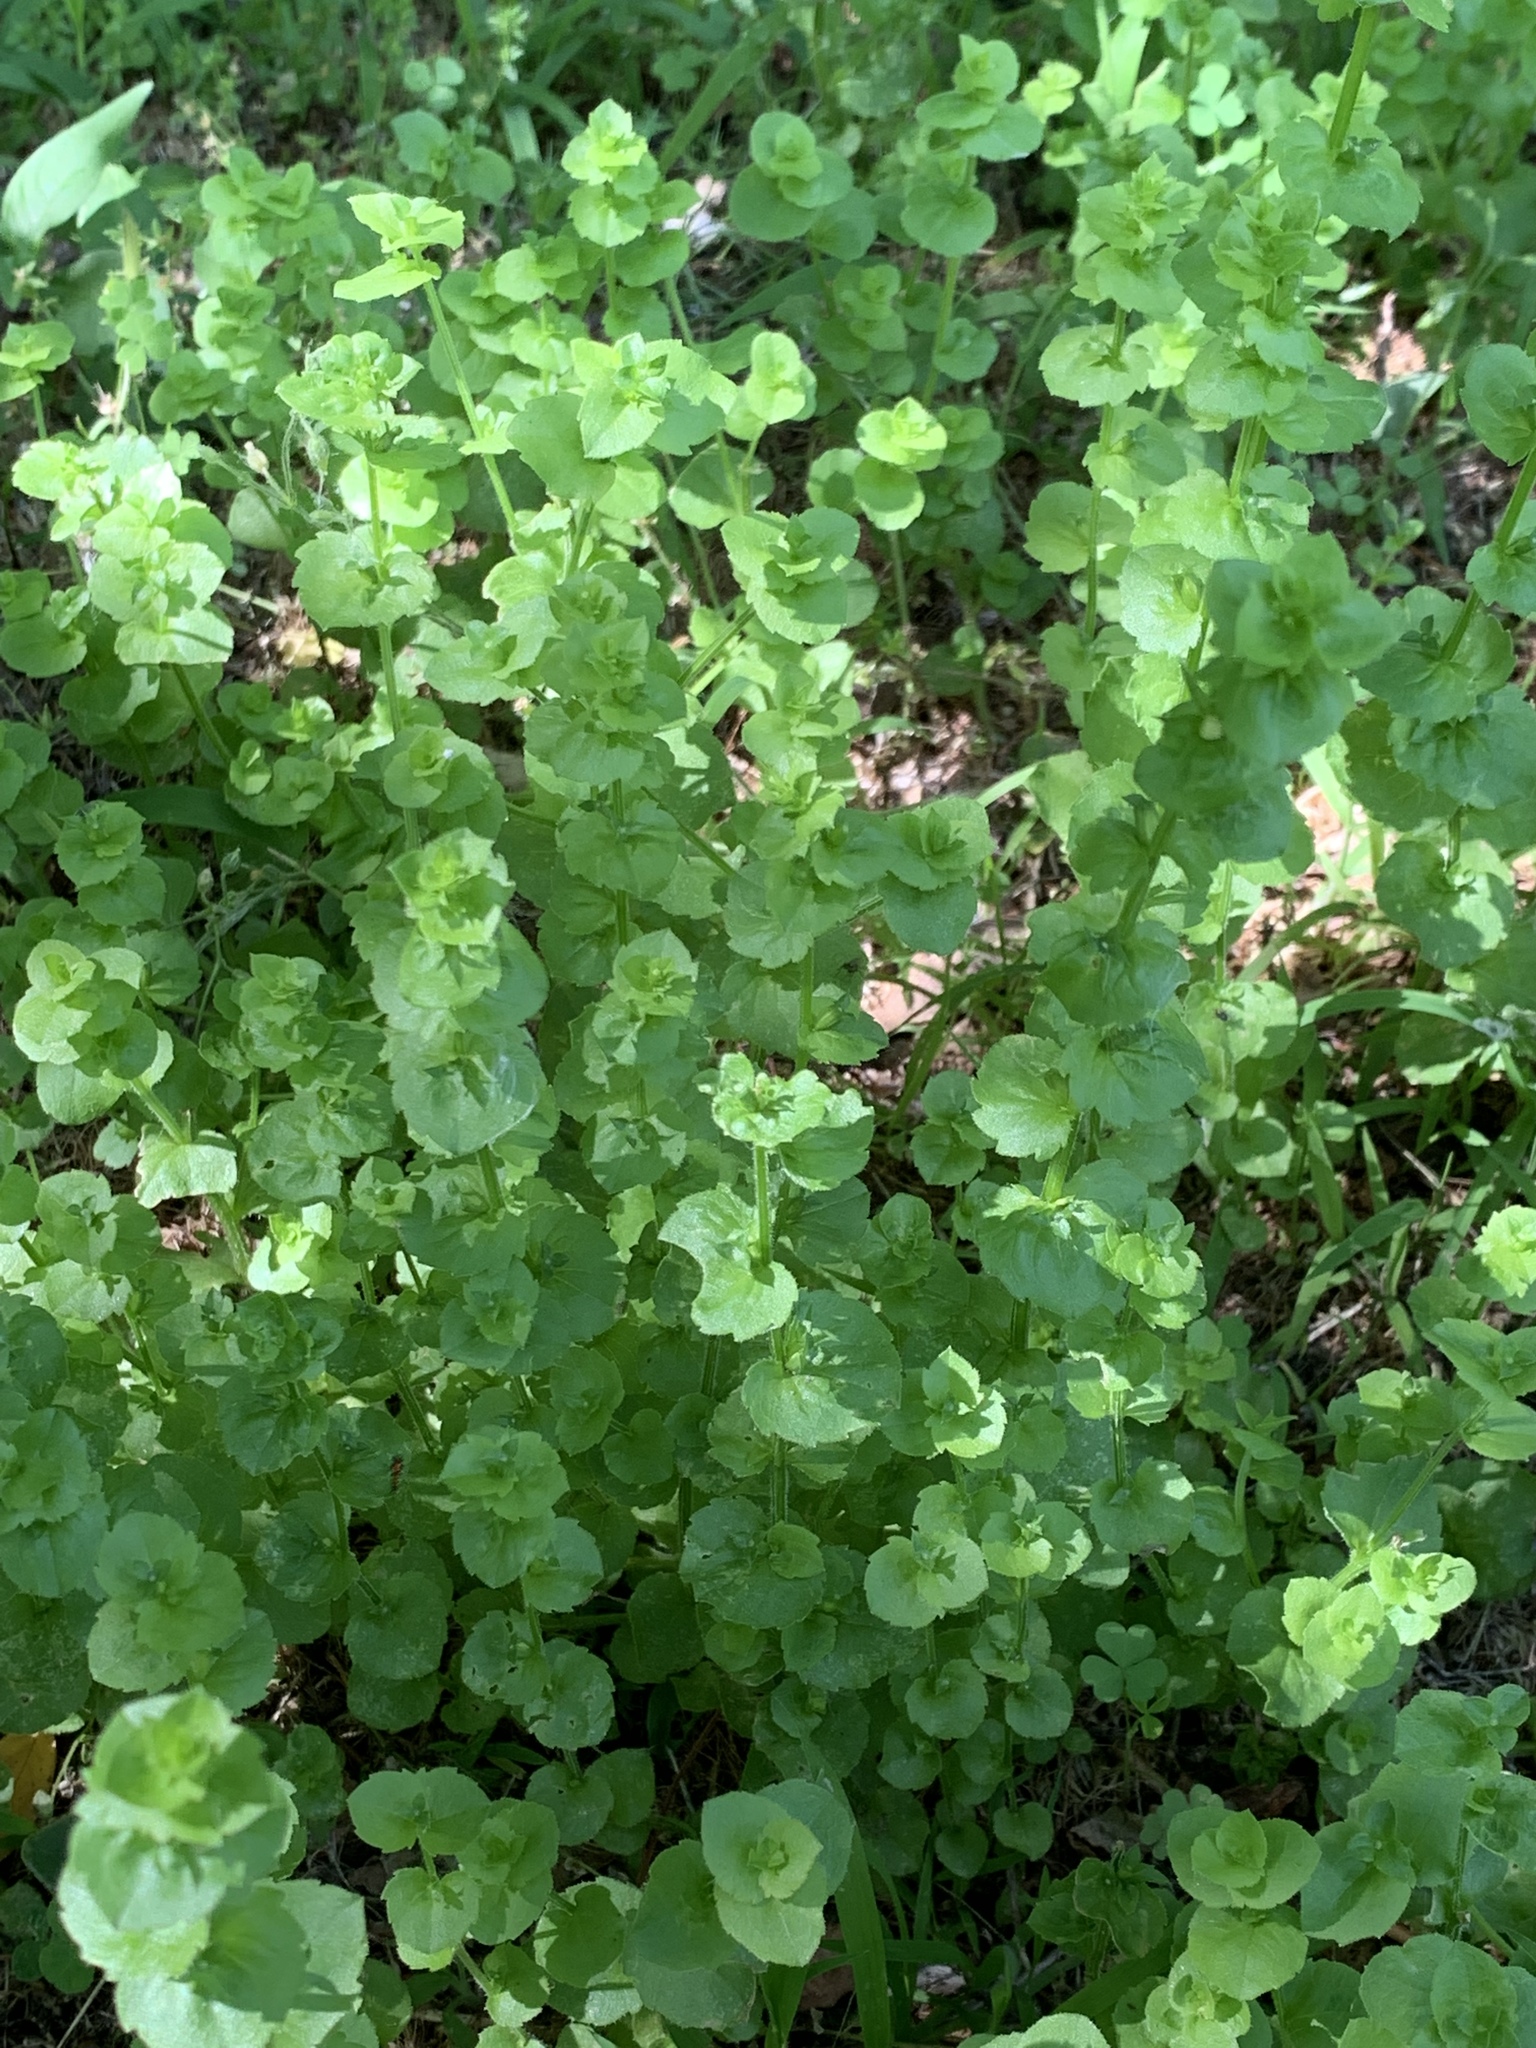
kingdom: Plantae
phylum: Tracheophyta
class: Magnoliopsida
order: Asterales
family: Campanulaceae
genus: Triodanis
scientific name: Triodanis perfoliata
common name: Clasping venus' looking-glass
